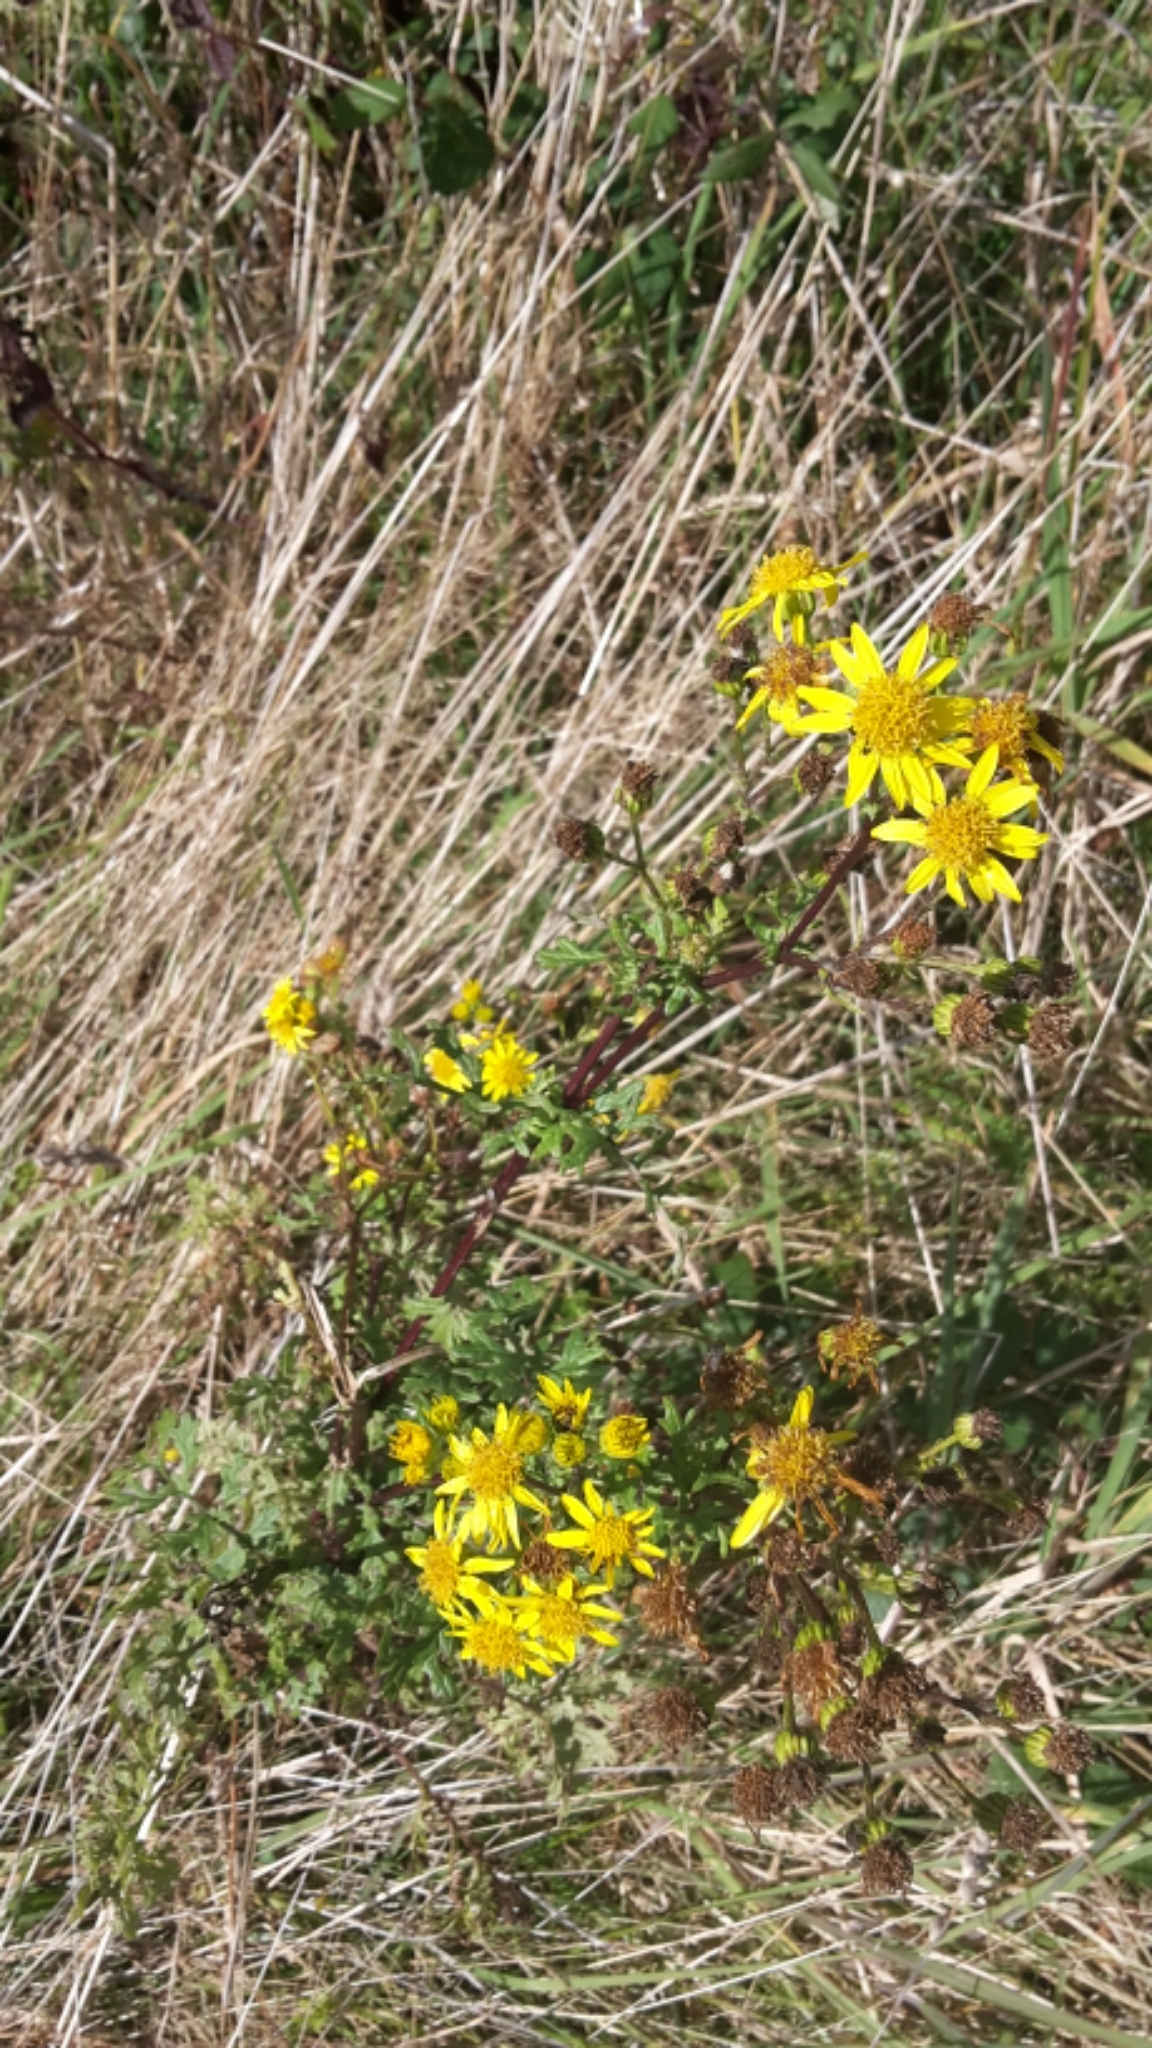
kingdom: Plantae
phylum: Tracheophyta
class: Magnoliopsida
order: Asterales
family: Asteraceae
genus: Jacobaea
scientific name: Jacobaea vulgaris
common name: Stinking willie
